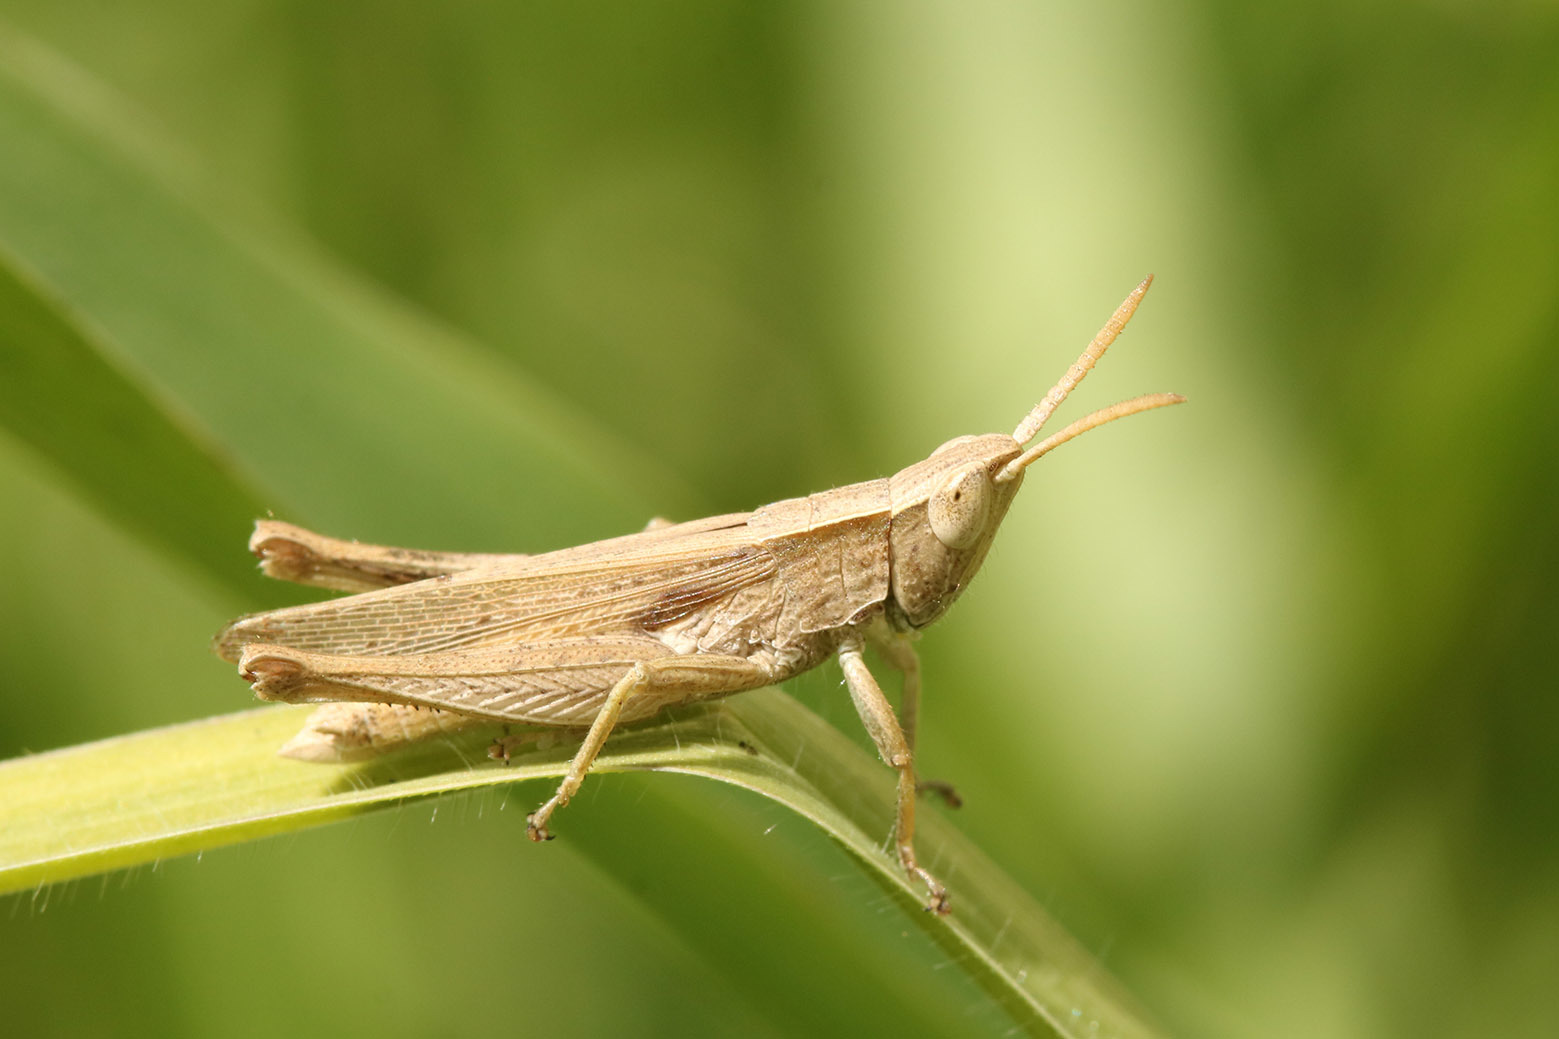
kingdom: Animalia
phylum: Arthropoda
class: Insecta
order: Orthoptera
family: Acrididae
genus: Laplatacris
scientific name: Laplatacris dispar
